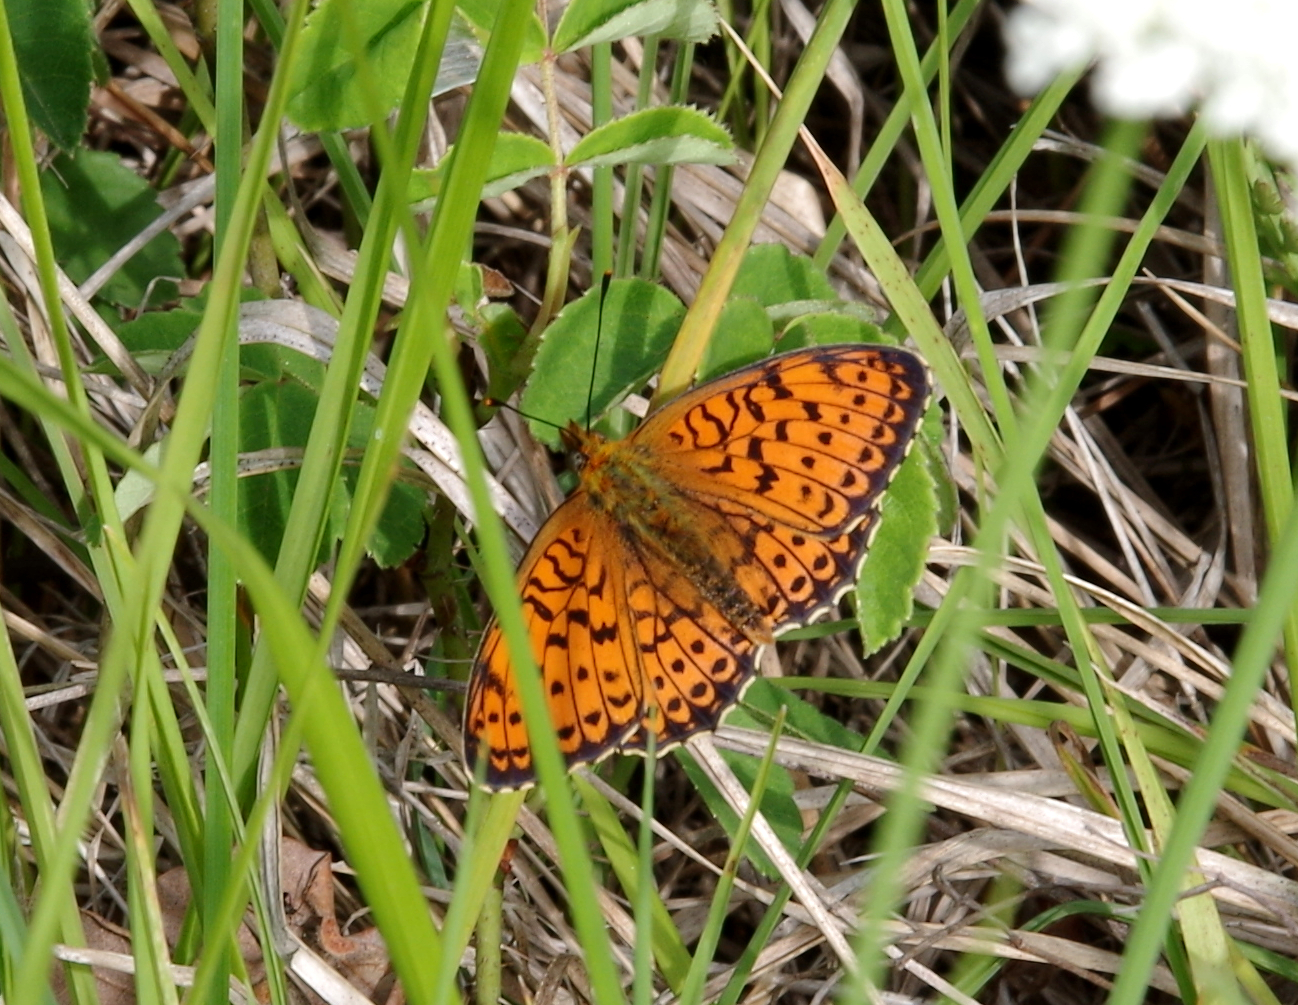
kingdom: Animalia
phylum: Arthropoda
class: Insecta
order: Lepidoptera
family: Nymphalidae
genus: Brenthis
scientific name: Brenthis hecate
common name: Twin-spot fritillary
